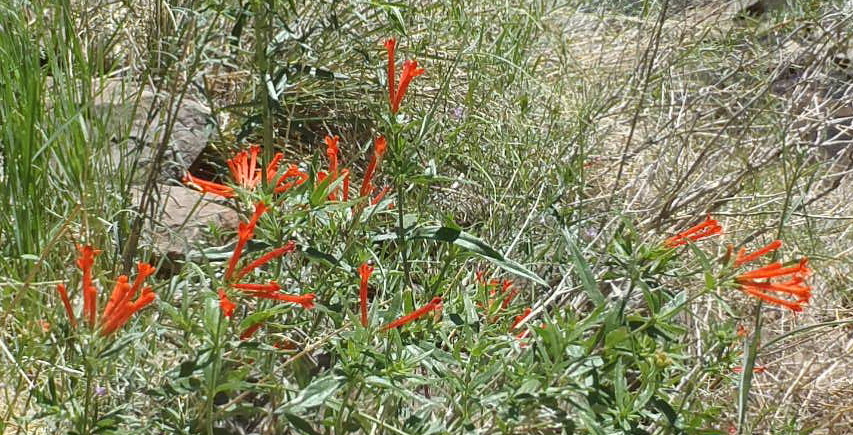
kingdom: Plantae
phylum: Tracheophyta
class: Magnoliopsida
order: Gentianales
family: Rubiaceae
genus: Bouvardia
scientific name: Bouvardia ternifolia
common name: Scarlet bouvardia
